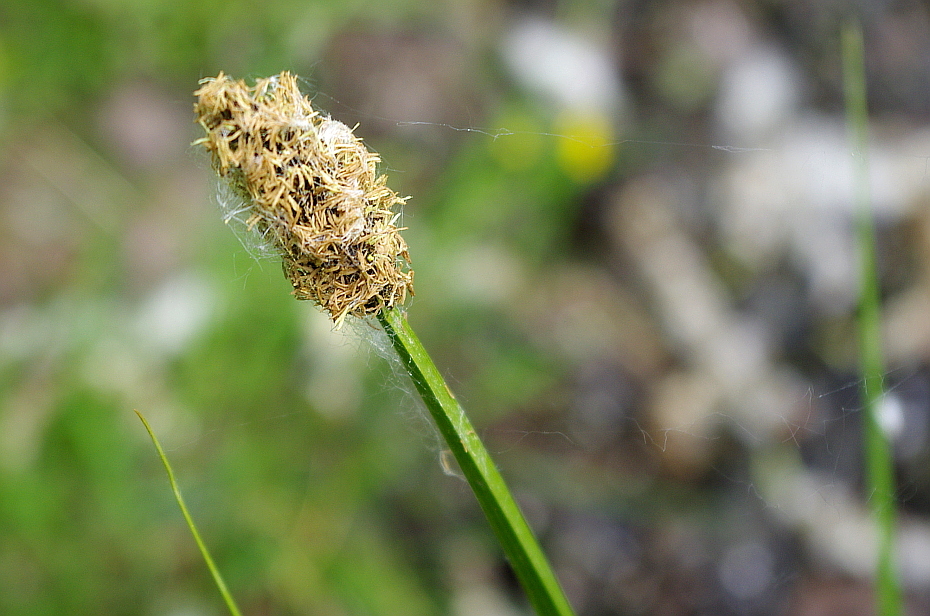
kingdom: Plantae
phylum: Tracheophyta
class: Liliopsida
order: Poales
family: Cyperaceae
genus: Carex
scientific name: Carex vulpina
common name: True fox-sedge
